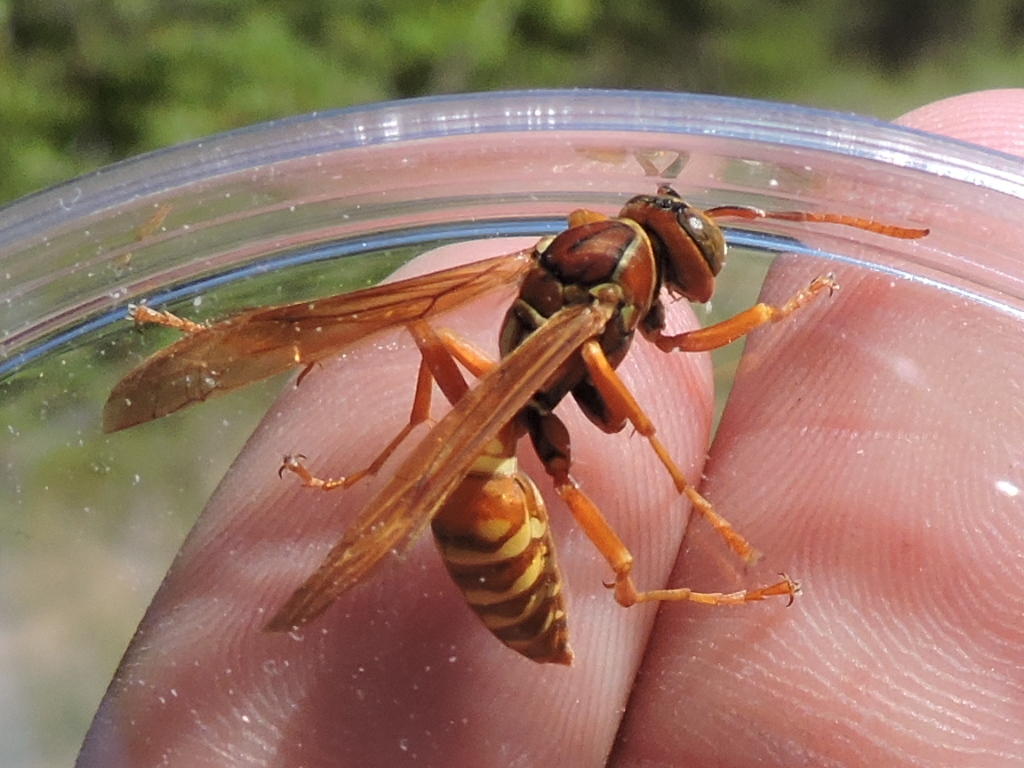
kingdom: Animalia
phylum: Arthropoda
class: Insecta
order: Hymenoptera
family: Eumenidae
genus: Polistes
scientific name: Polistes bellicosus
